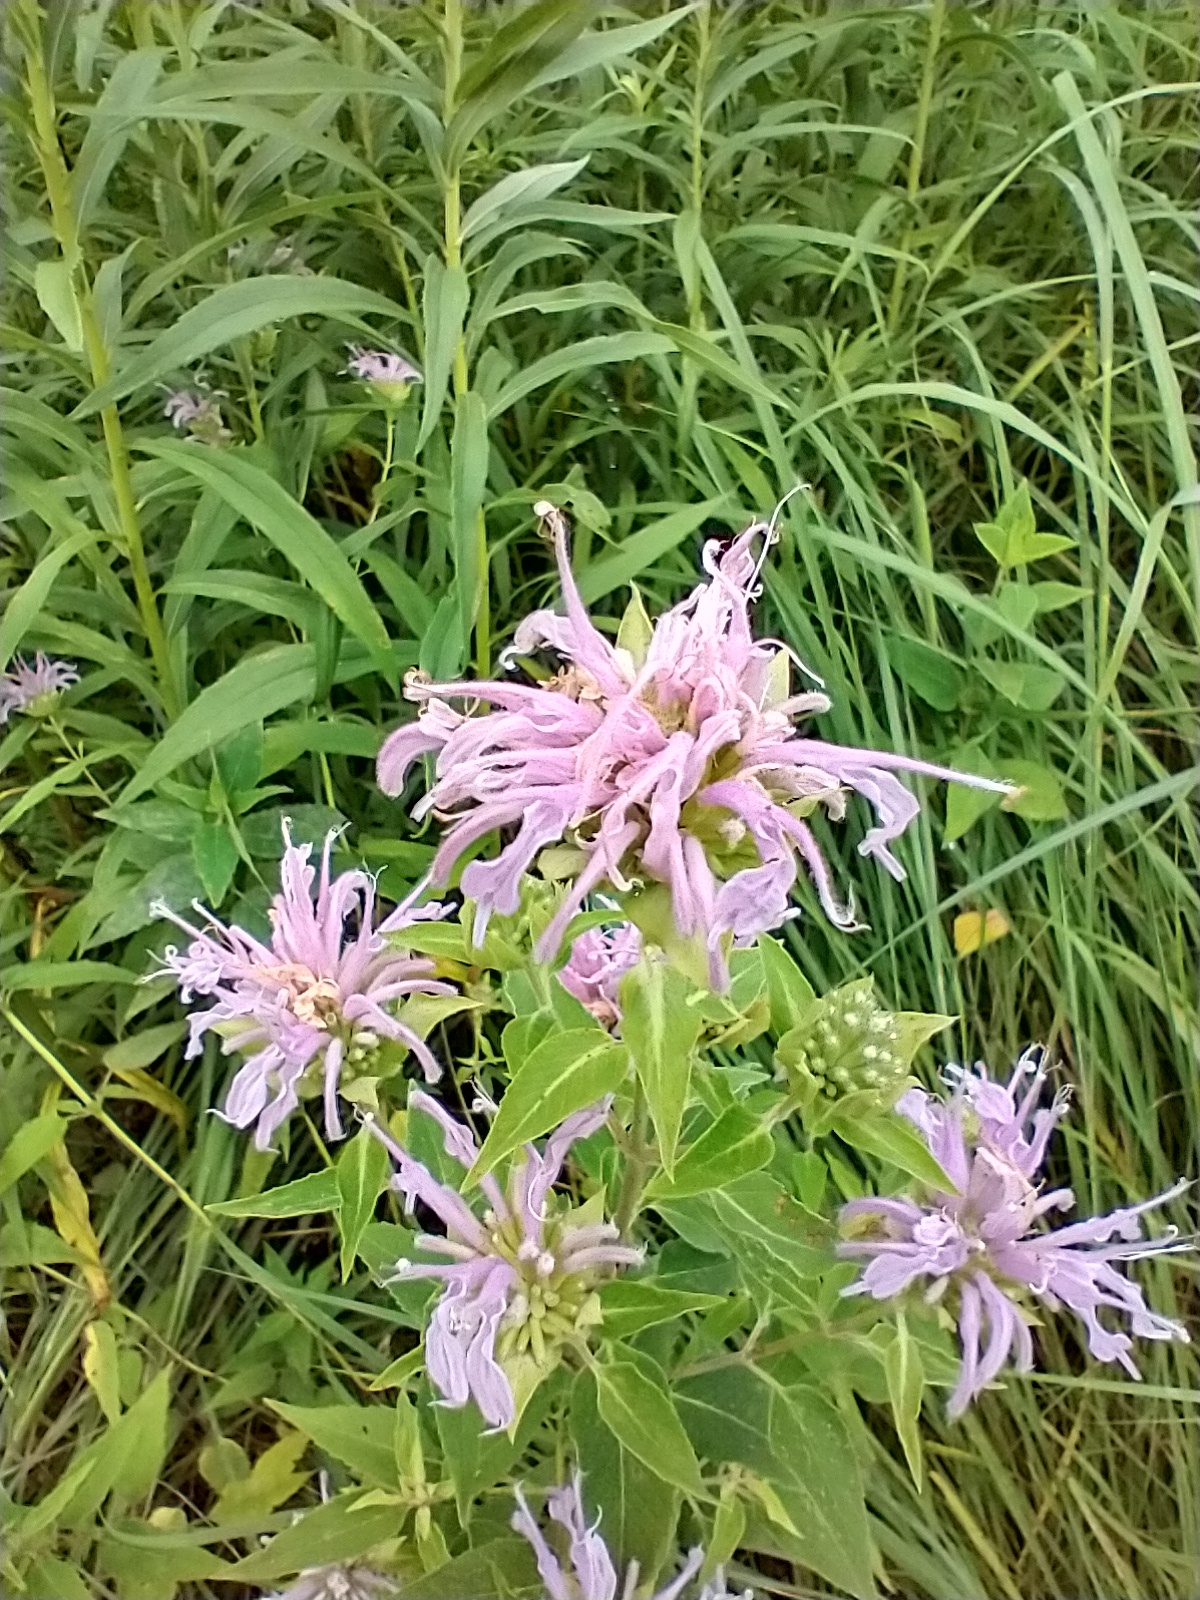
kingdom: Plantae
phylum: Tracheophyta
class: Magnoliopsida
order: Lamiales
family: Lamiaceae
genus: Monarda
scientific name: Monarda fistulosa
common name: Purple beebalm
